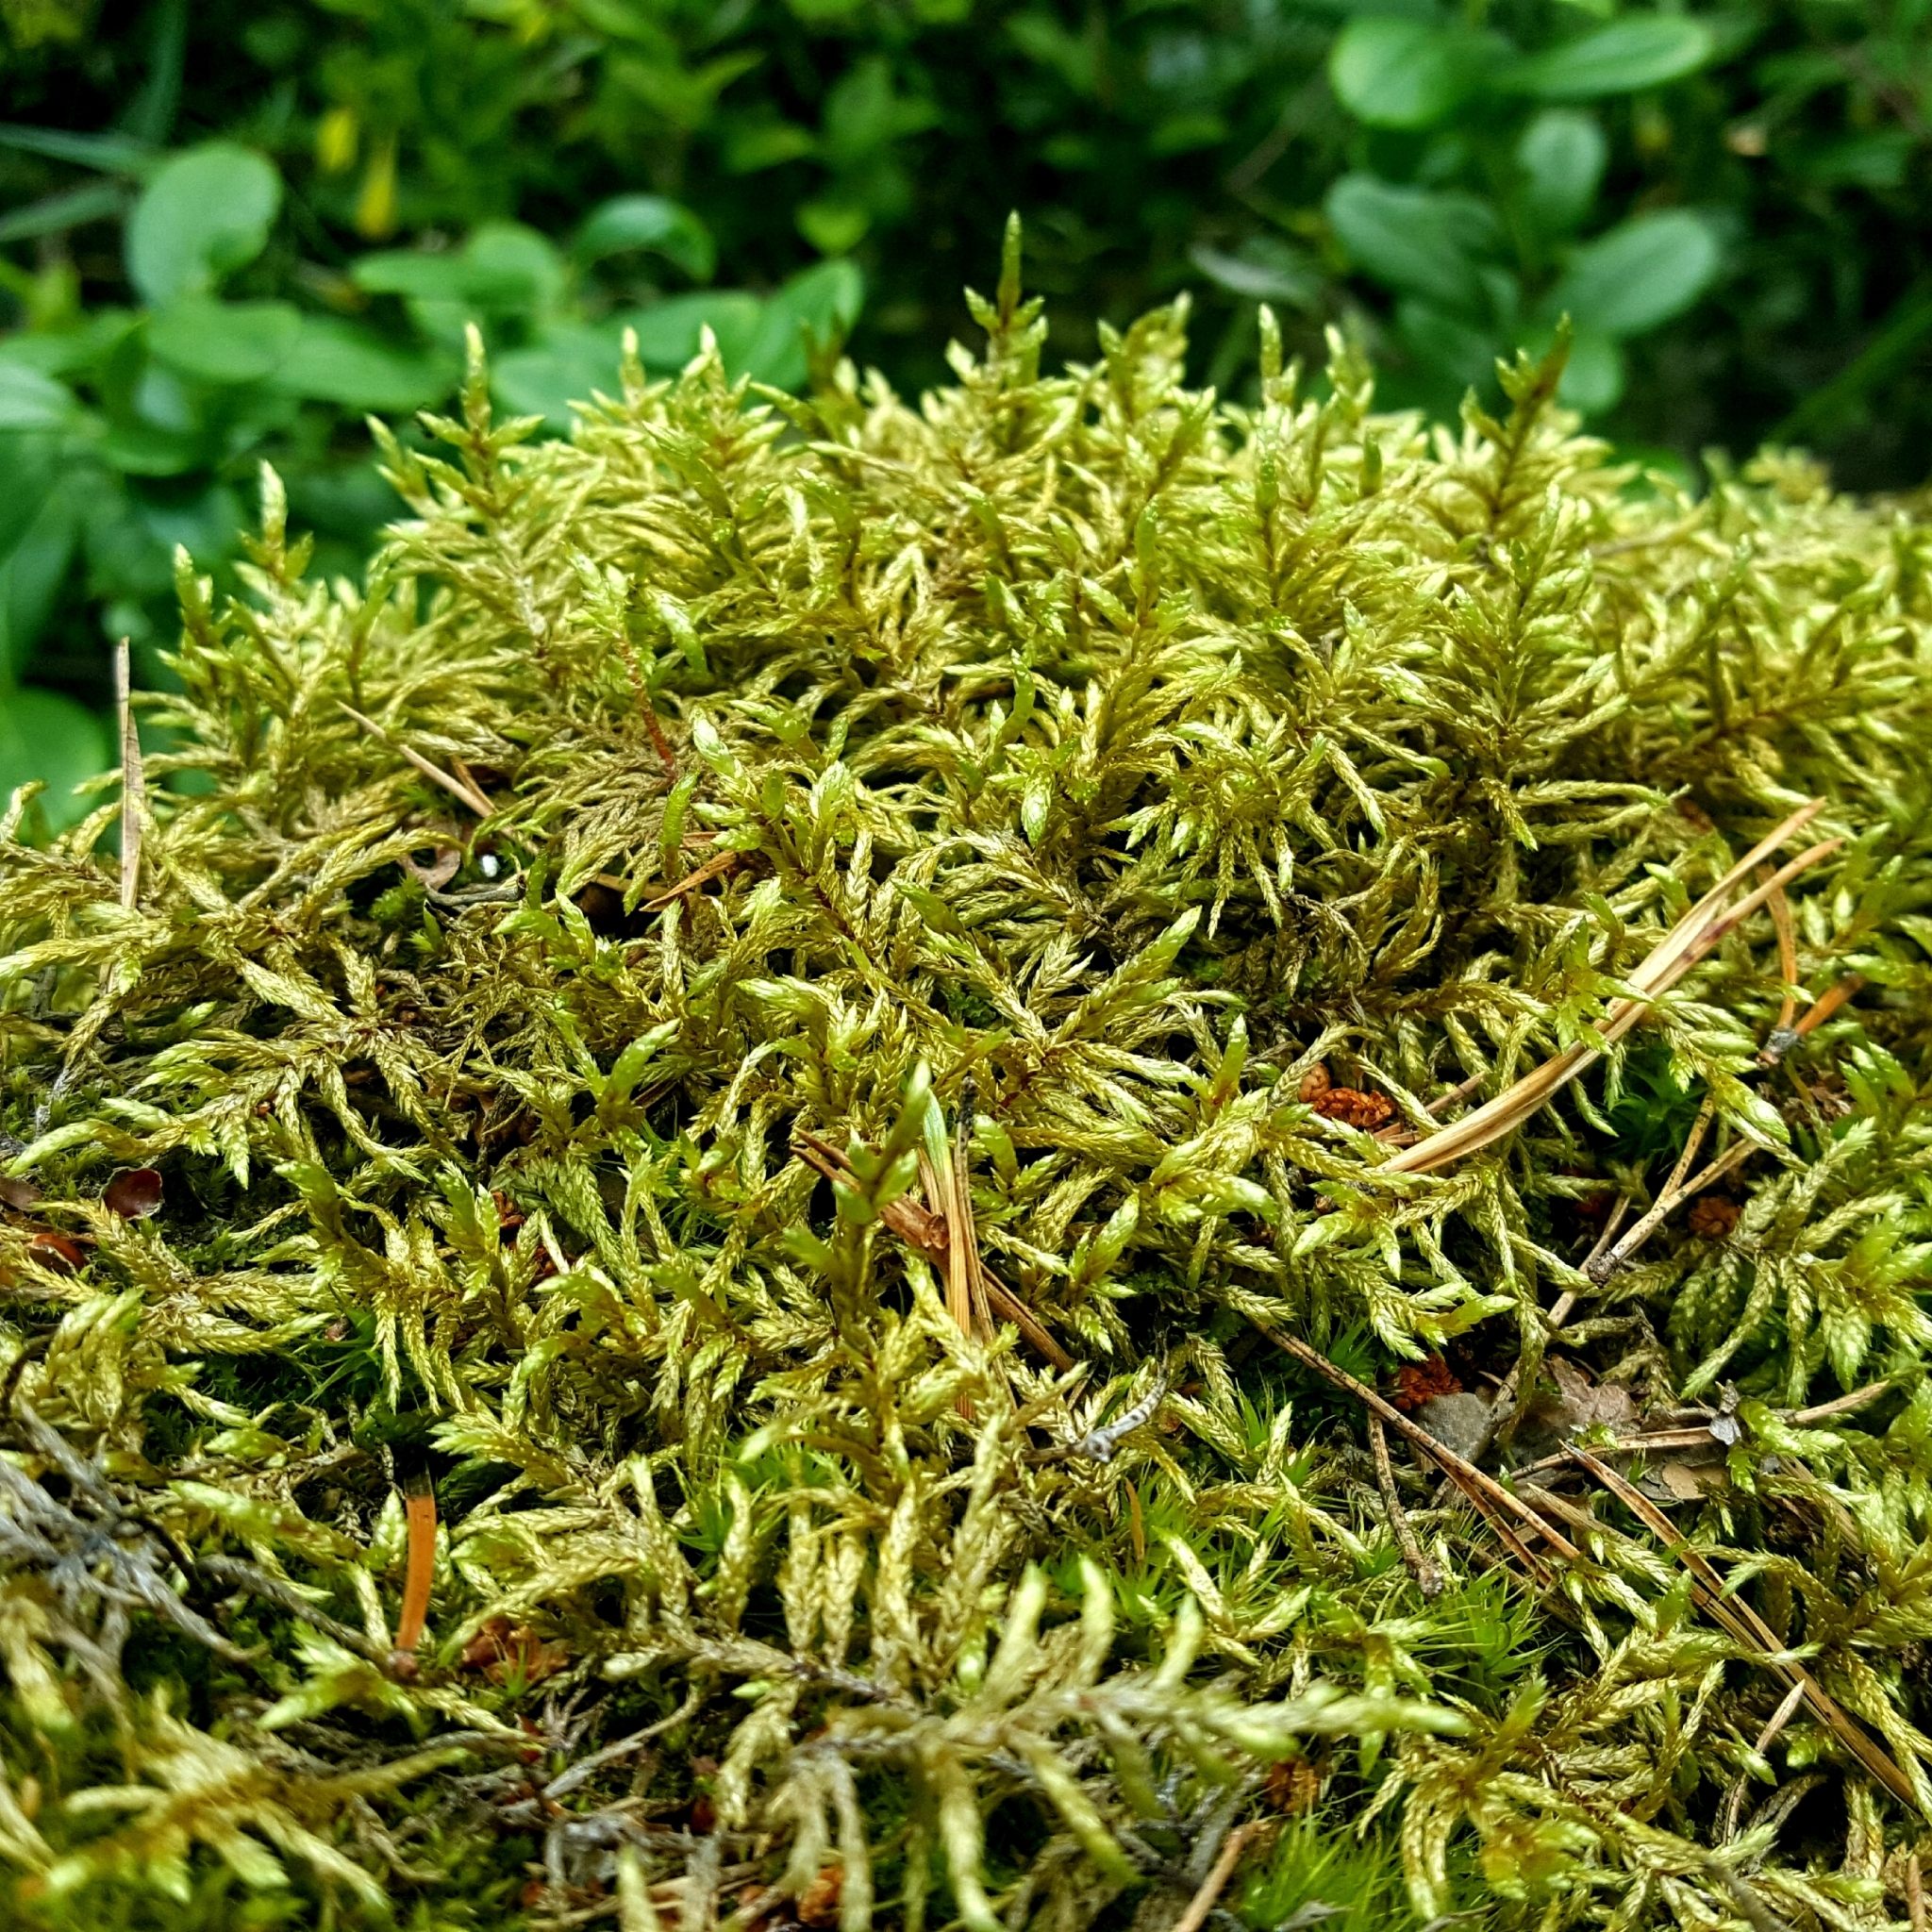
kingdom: Plantae
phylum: Bryophyta
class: Bryopsida
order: Hypnales
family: Hylocomiaceae
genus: Pleurozium
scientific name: Pleurozium schreberi
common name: Red-stemmed feather moss
